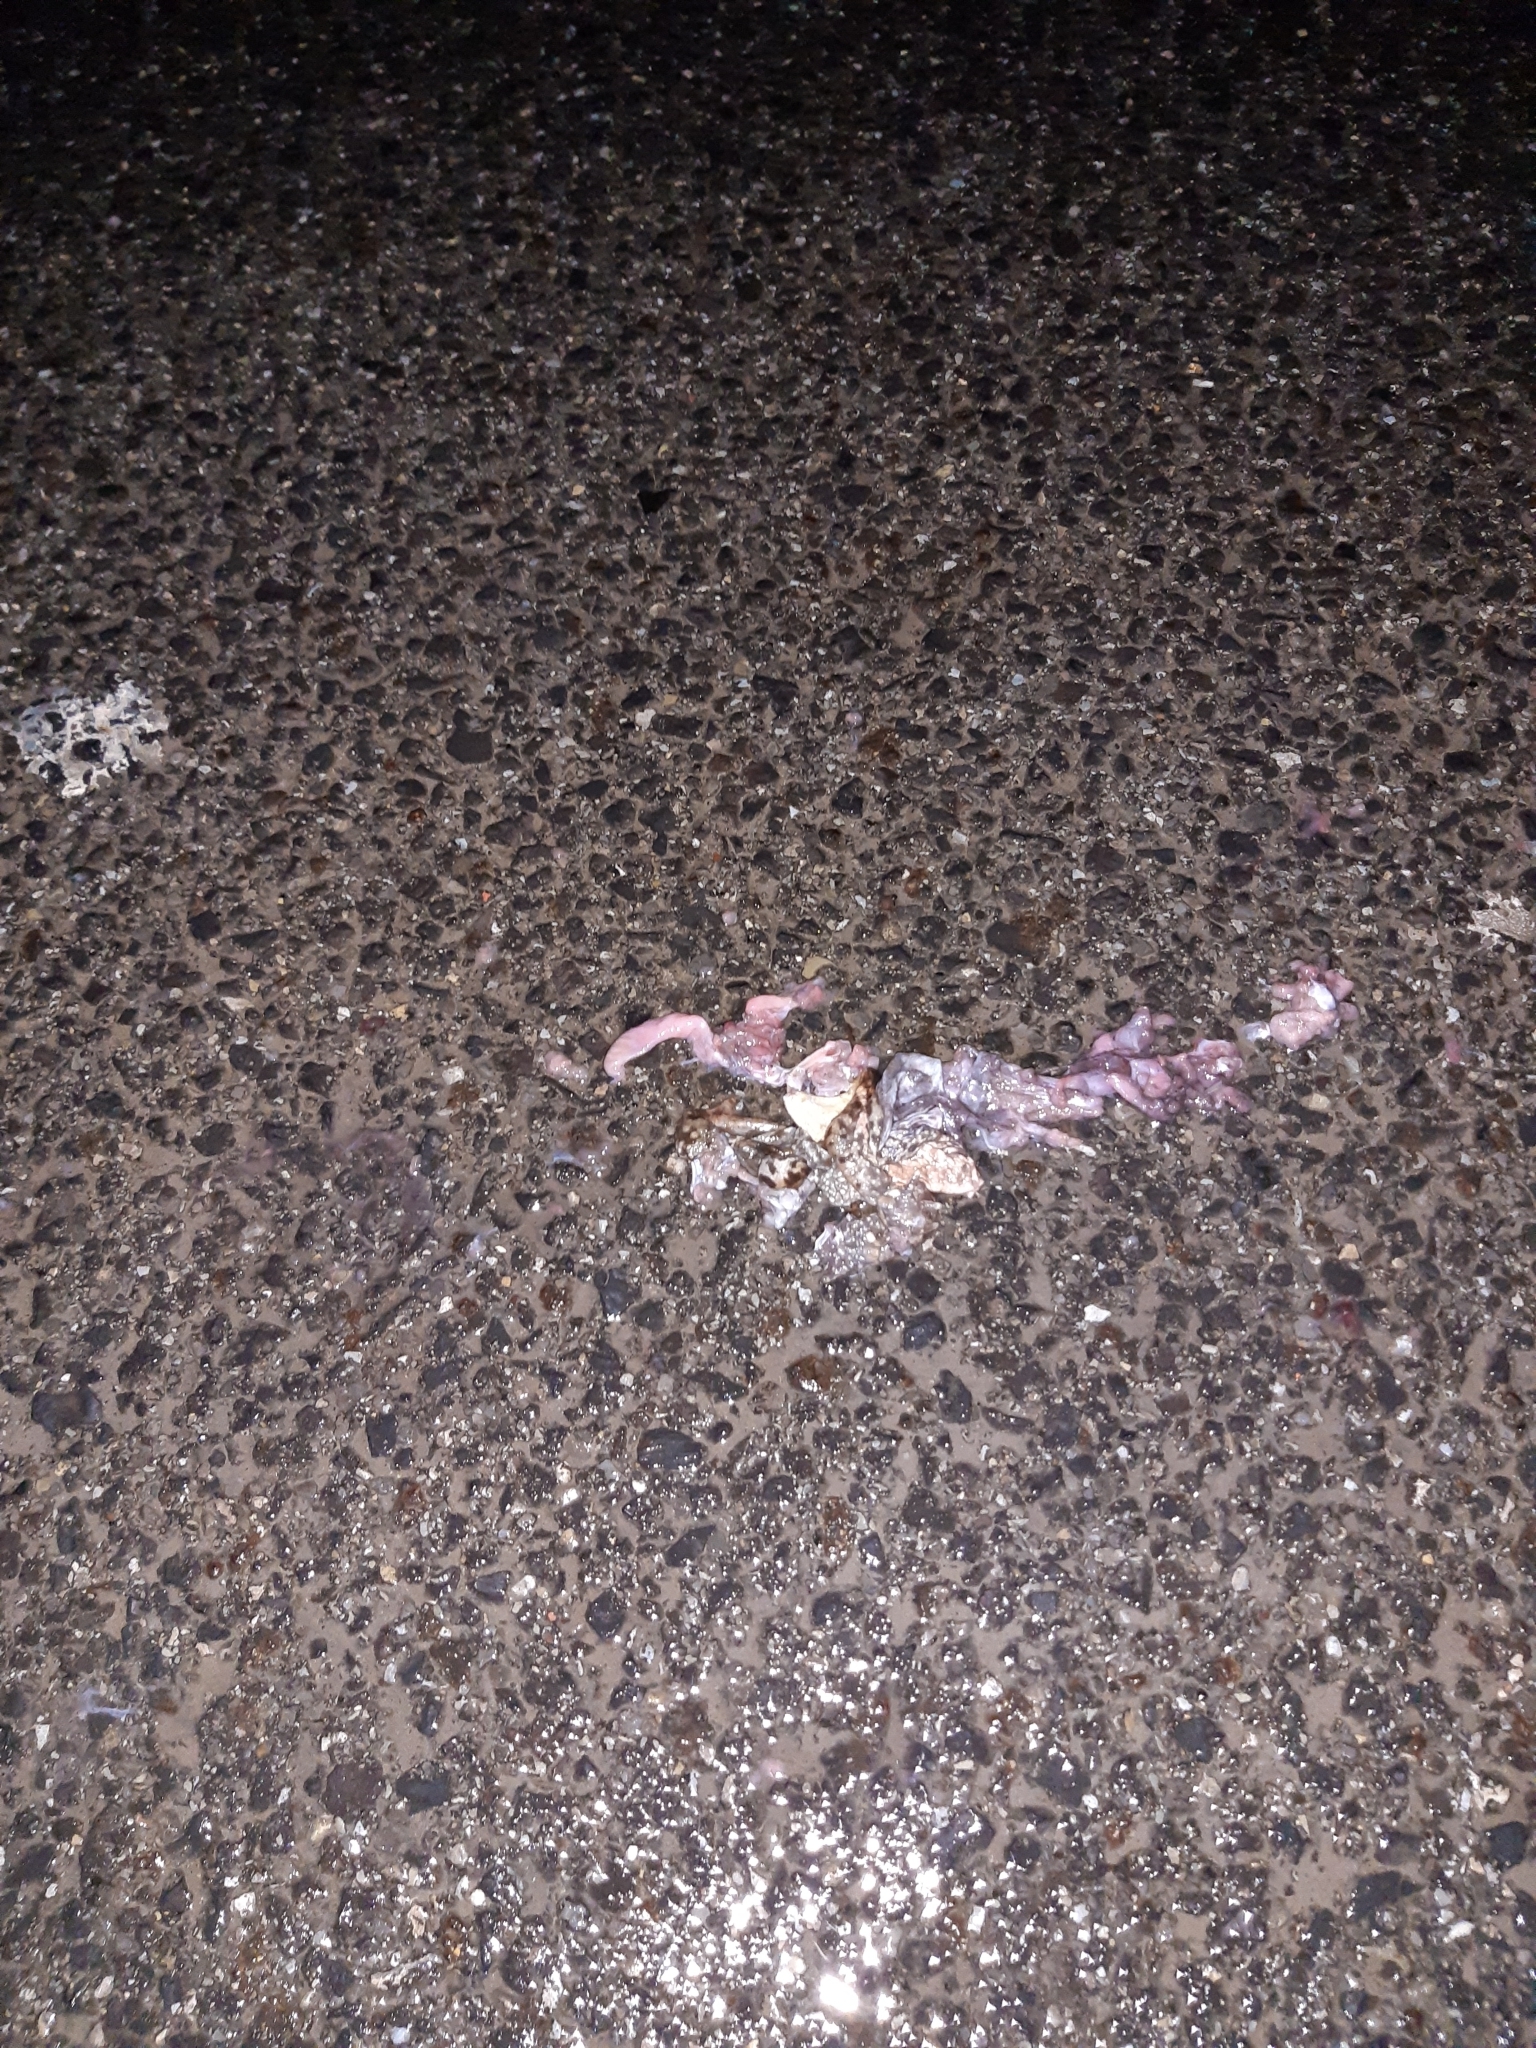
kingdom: Animalia
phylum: Chordata
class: Amphibia
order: Anura
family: Bufonidae
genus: Bufo
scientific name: Bufo bufo
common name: Common toad
